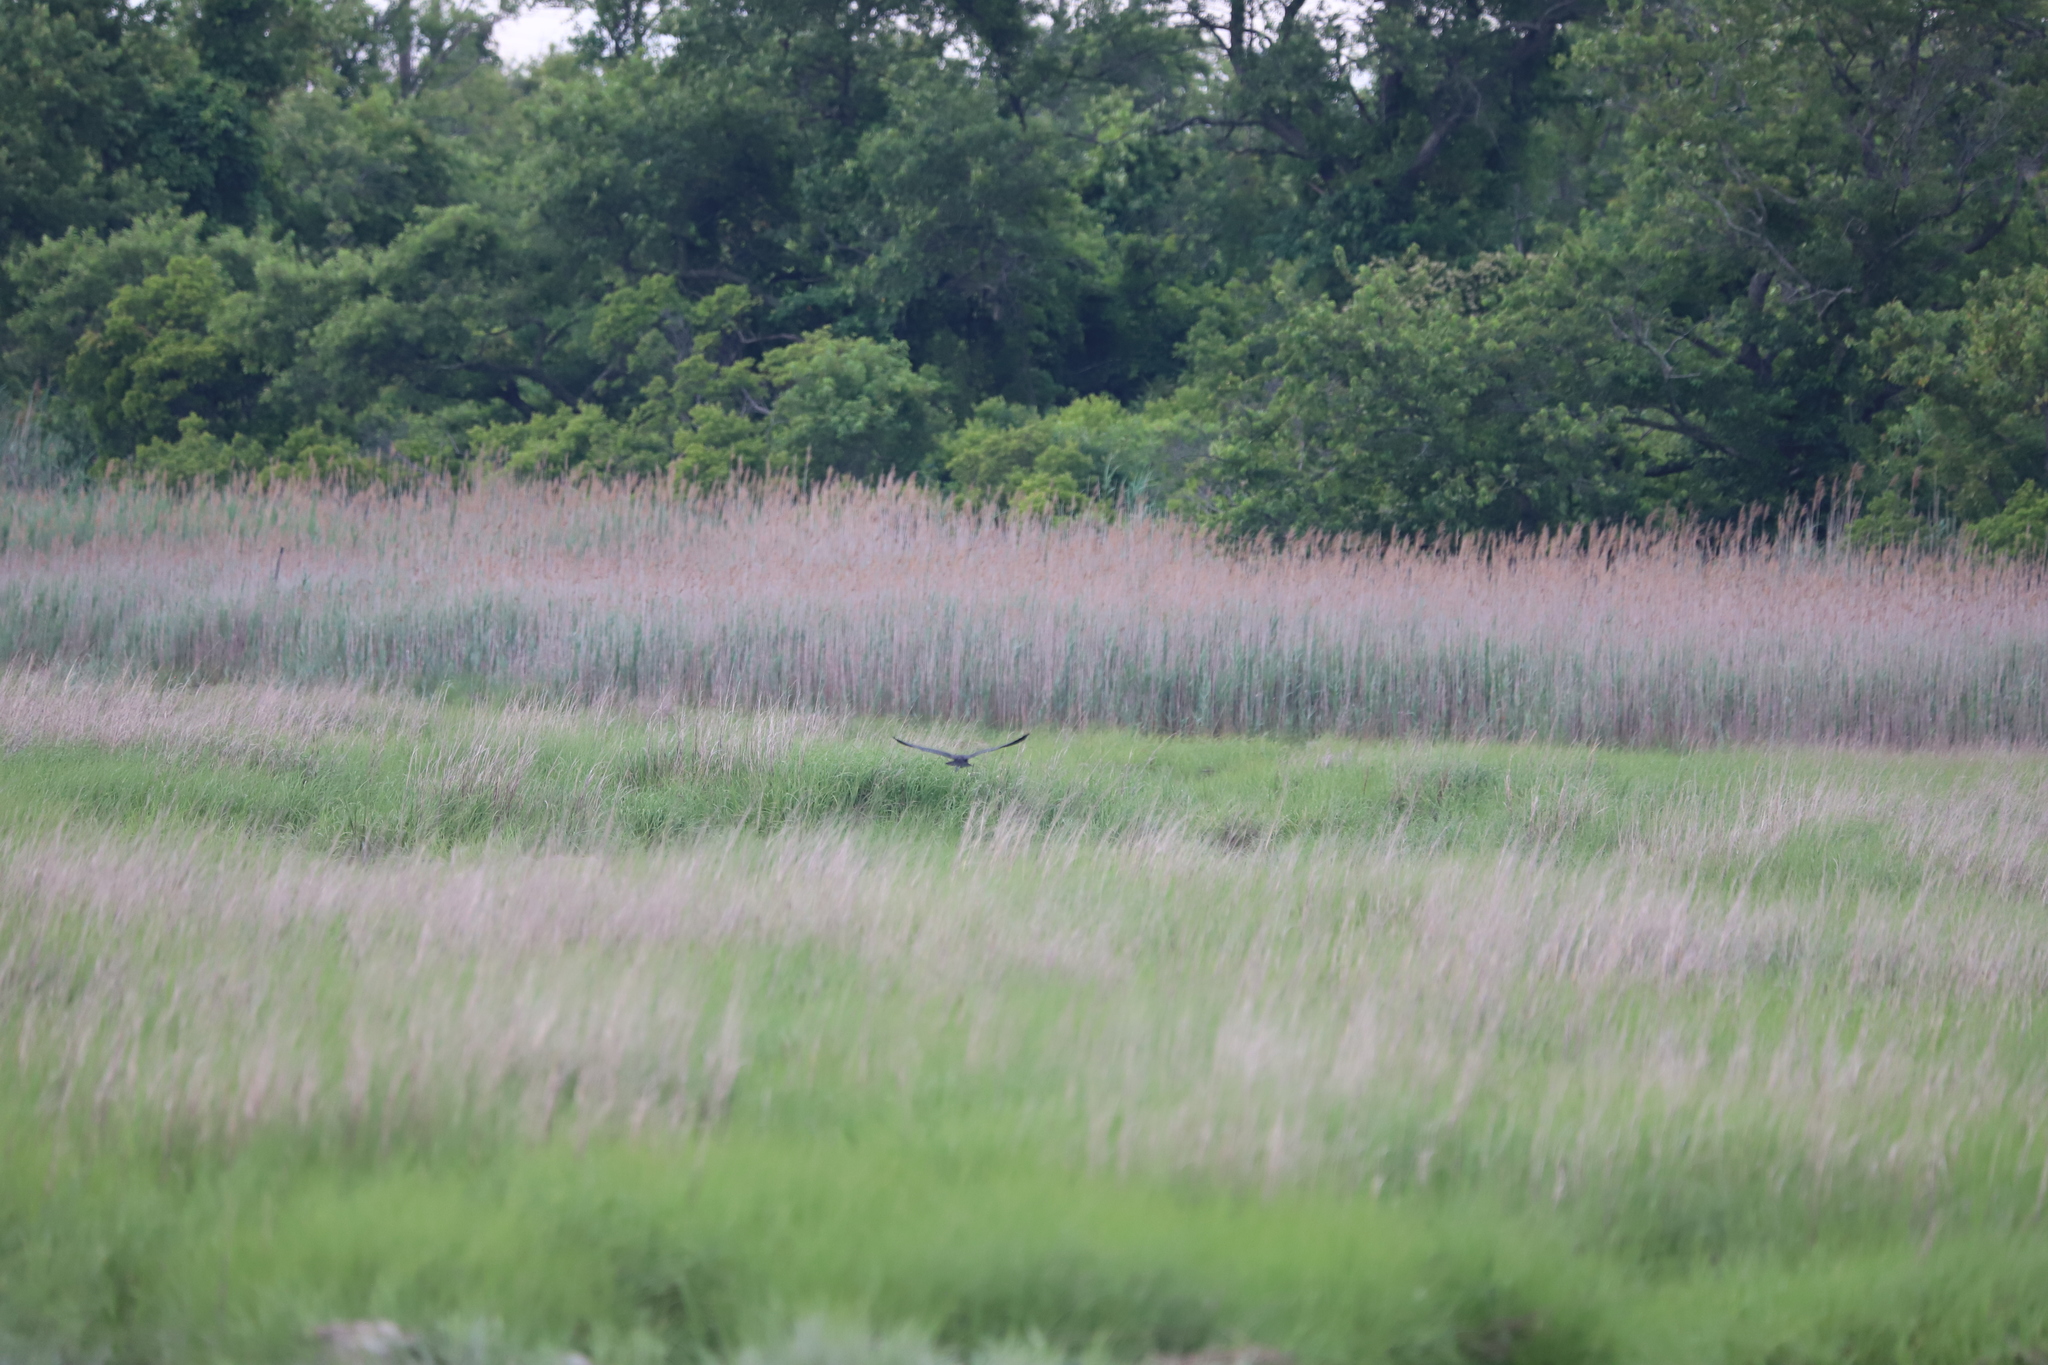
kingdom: Animalia
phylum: Chordata
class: Aves
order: Pelecaniformes
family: Threskiornithidae
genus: Plegadis
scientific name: Plegadis falcinellus
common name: Glossy ibis
